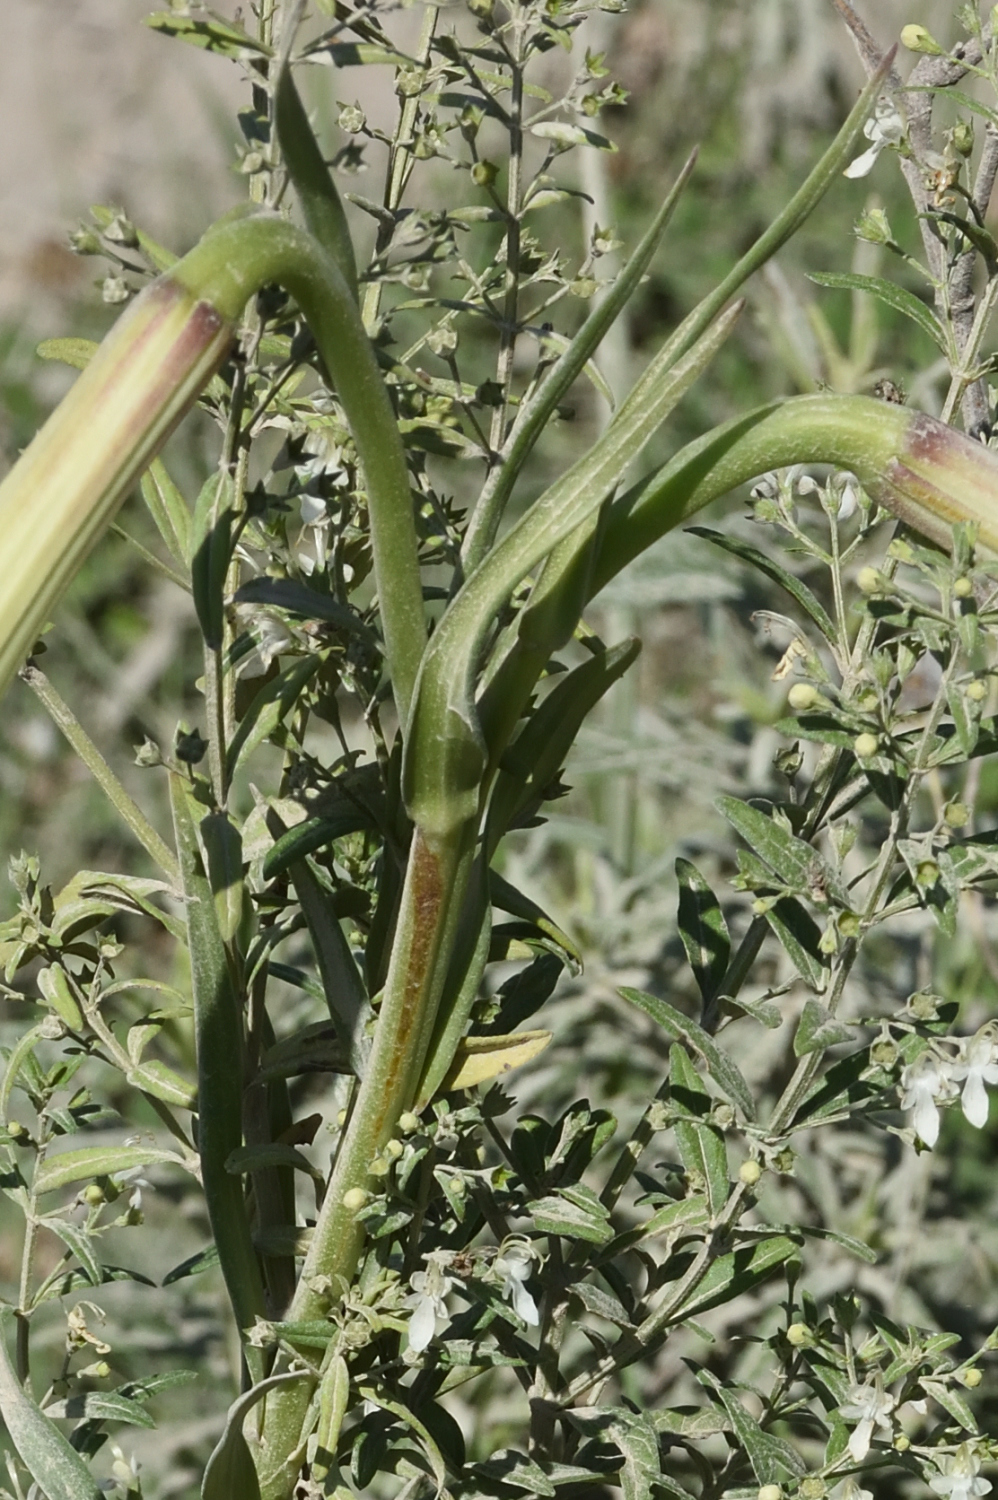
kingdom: Plantae
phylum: Tracheophyta
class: Liliopsida
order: Liliales
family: Liliaceae
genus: Lilium
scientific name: Lilium formosanum
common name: Formosa lily
